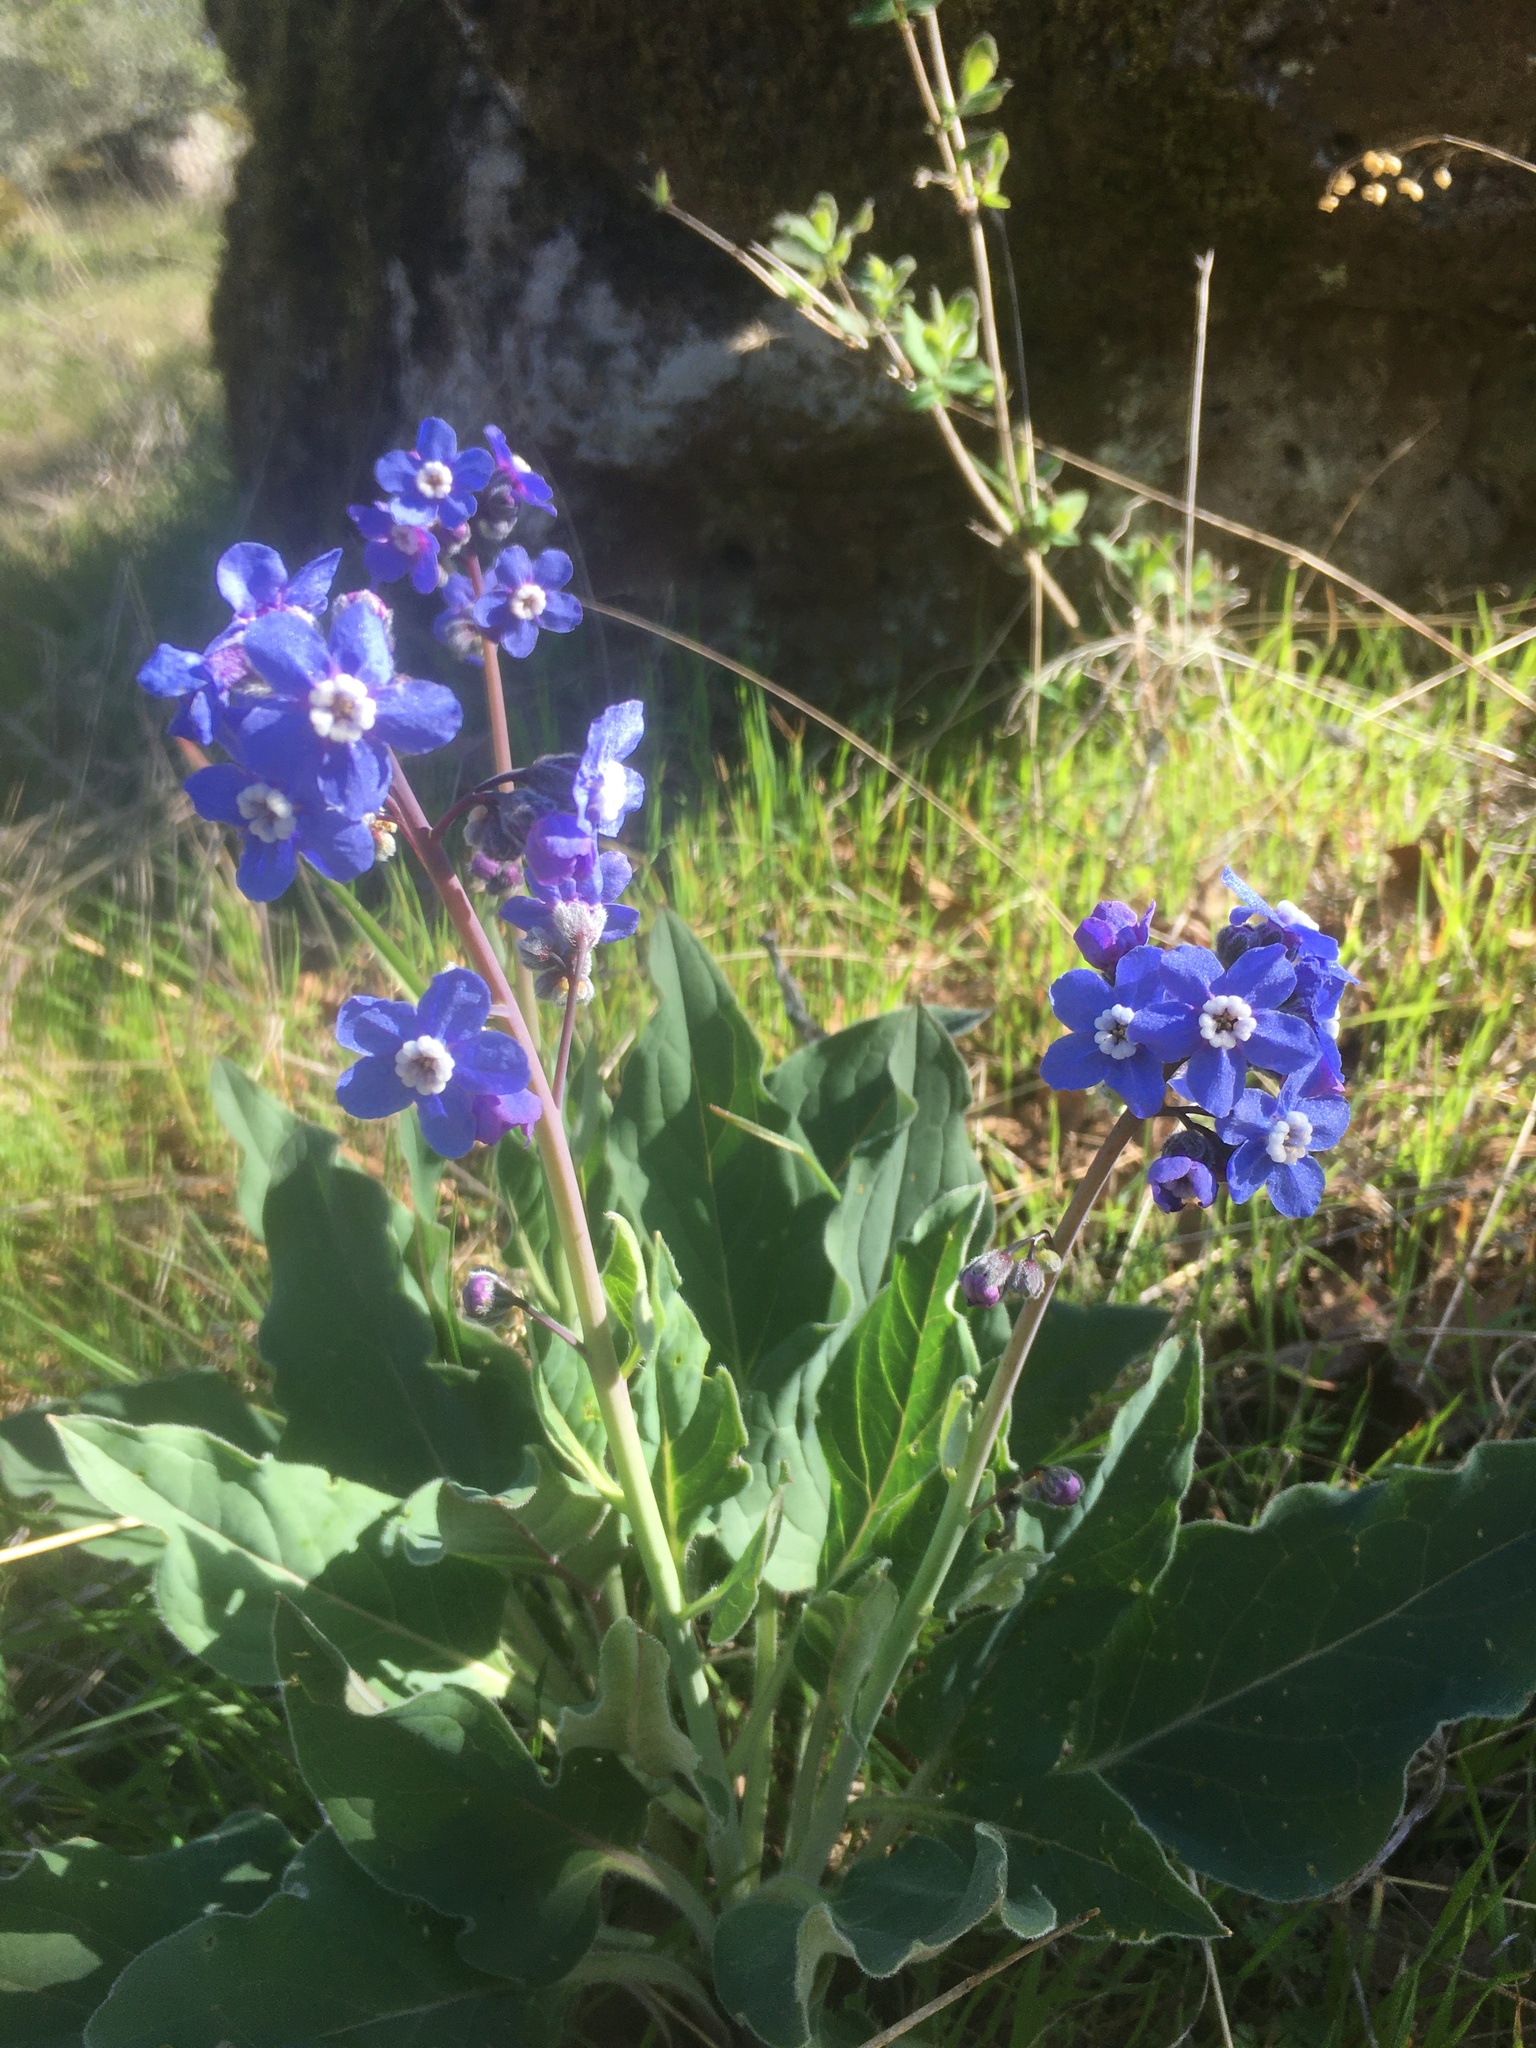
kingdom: Plantae
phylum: Tracheophyta
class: Magnoliopsida
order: Boraginales
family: Boraginaceae
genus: Adelinia
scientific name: Adelinia grande
